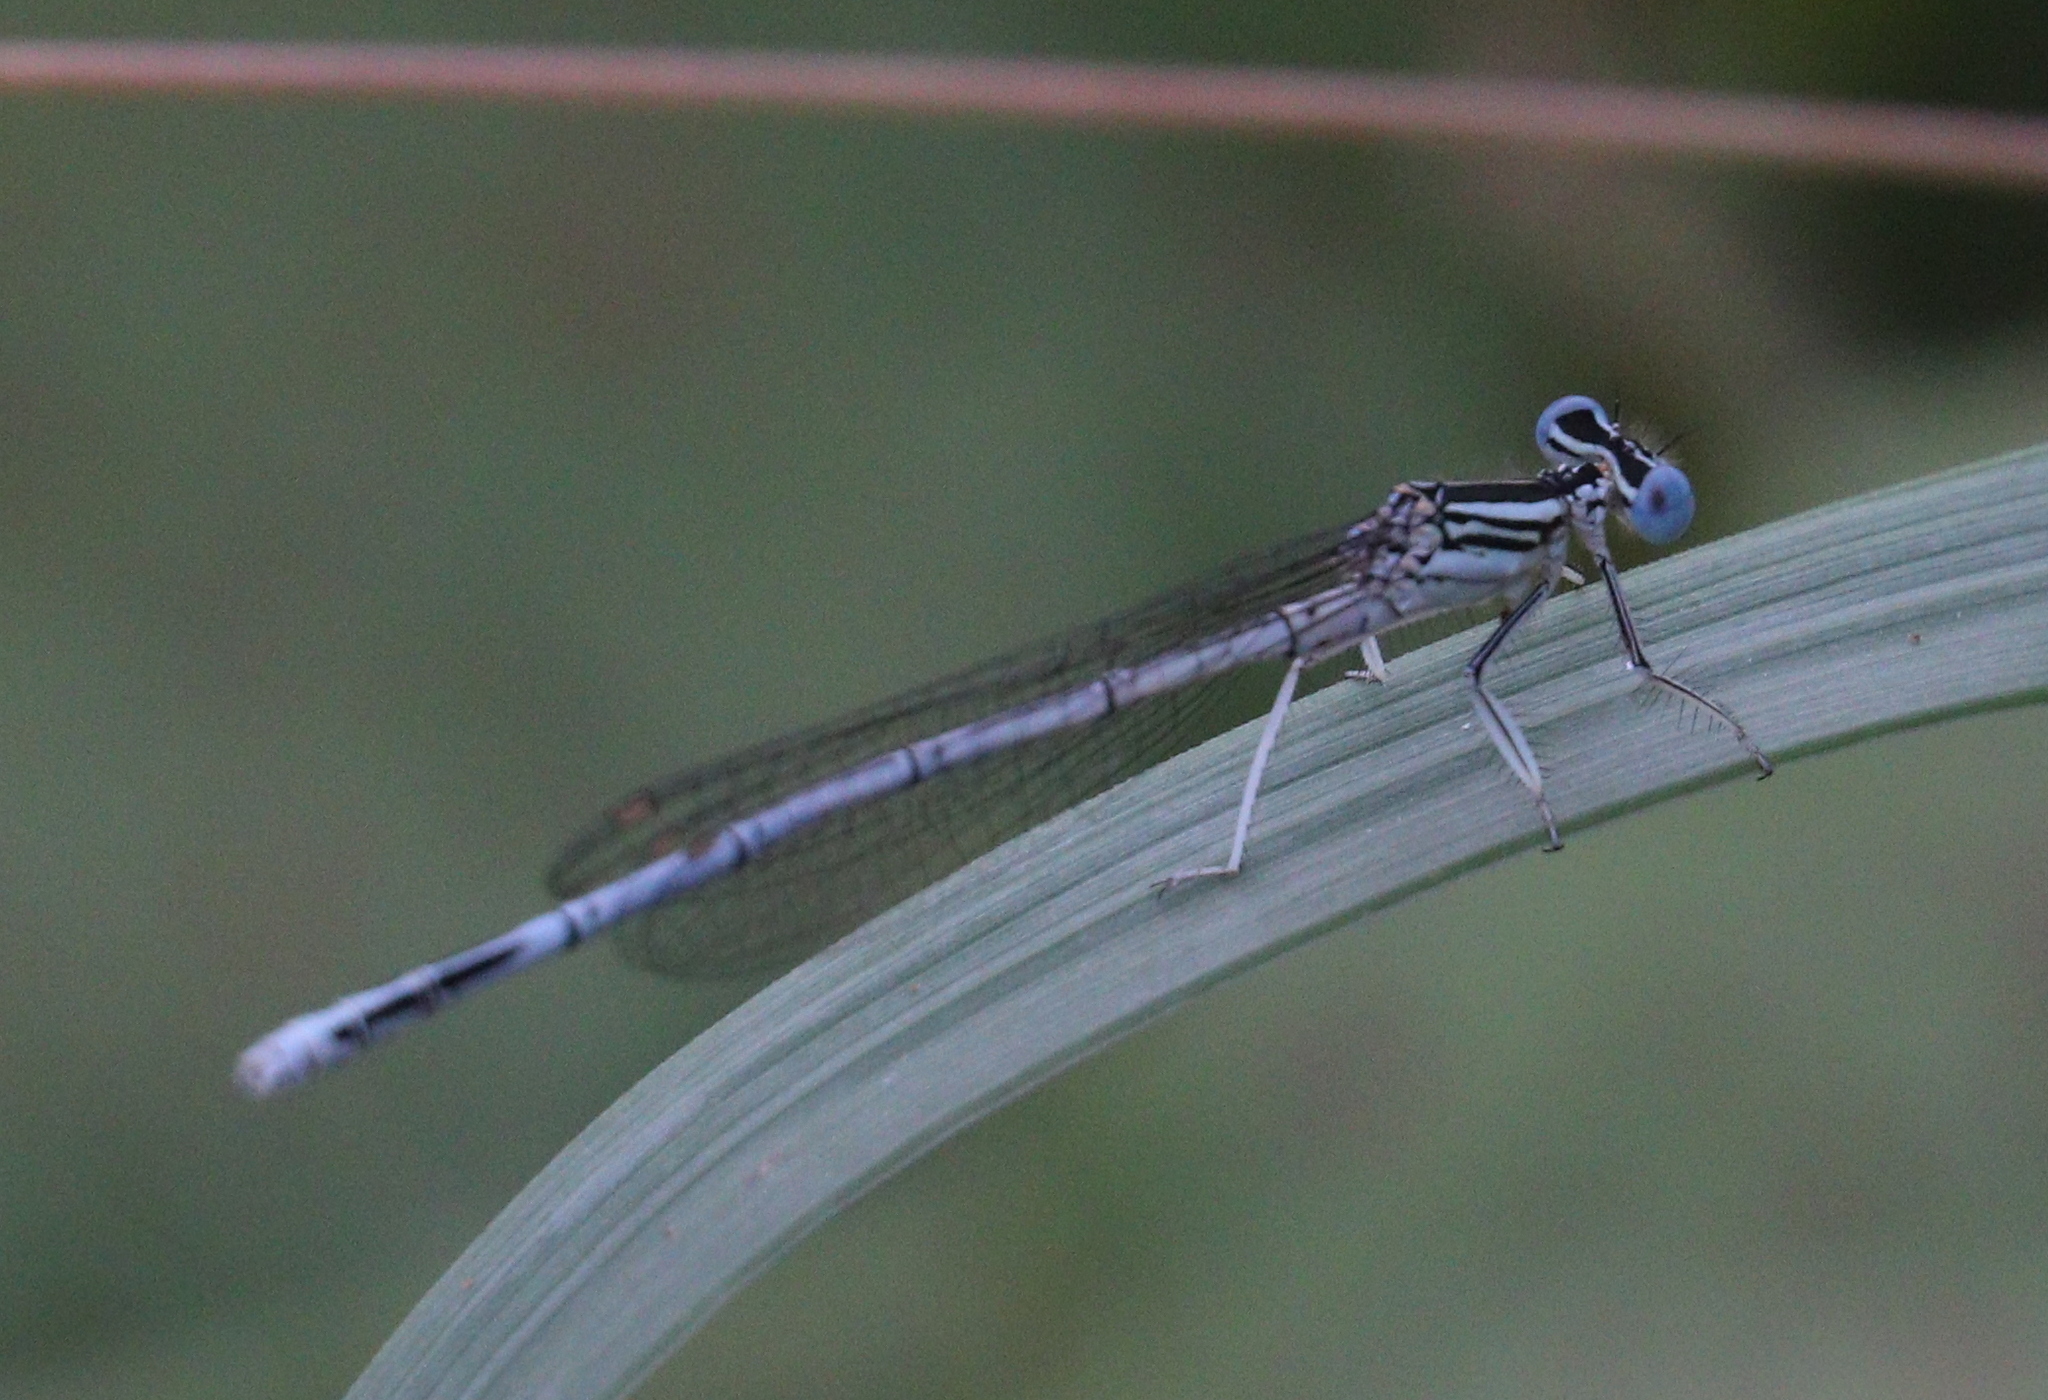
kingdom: Animalia
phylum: Arthropoda
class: Insecta
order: Odonata
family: Platycnemididae
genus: Platycnemis
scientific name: Platycnemis pennipes
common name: White-legged damselfly
